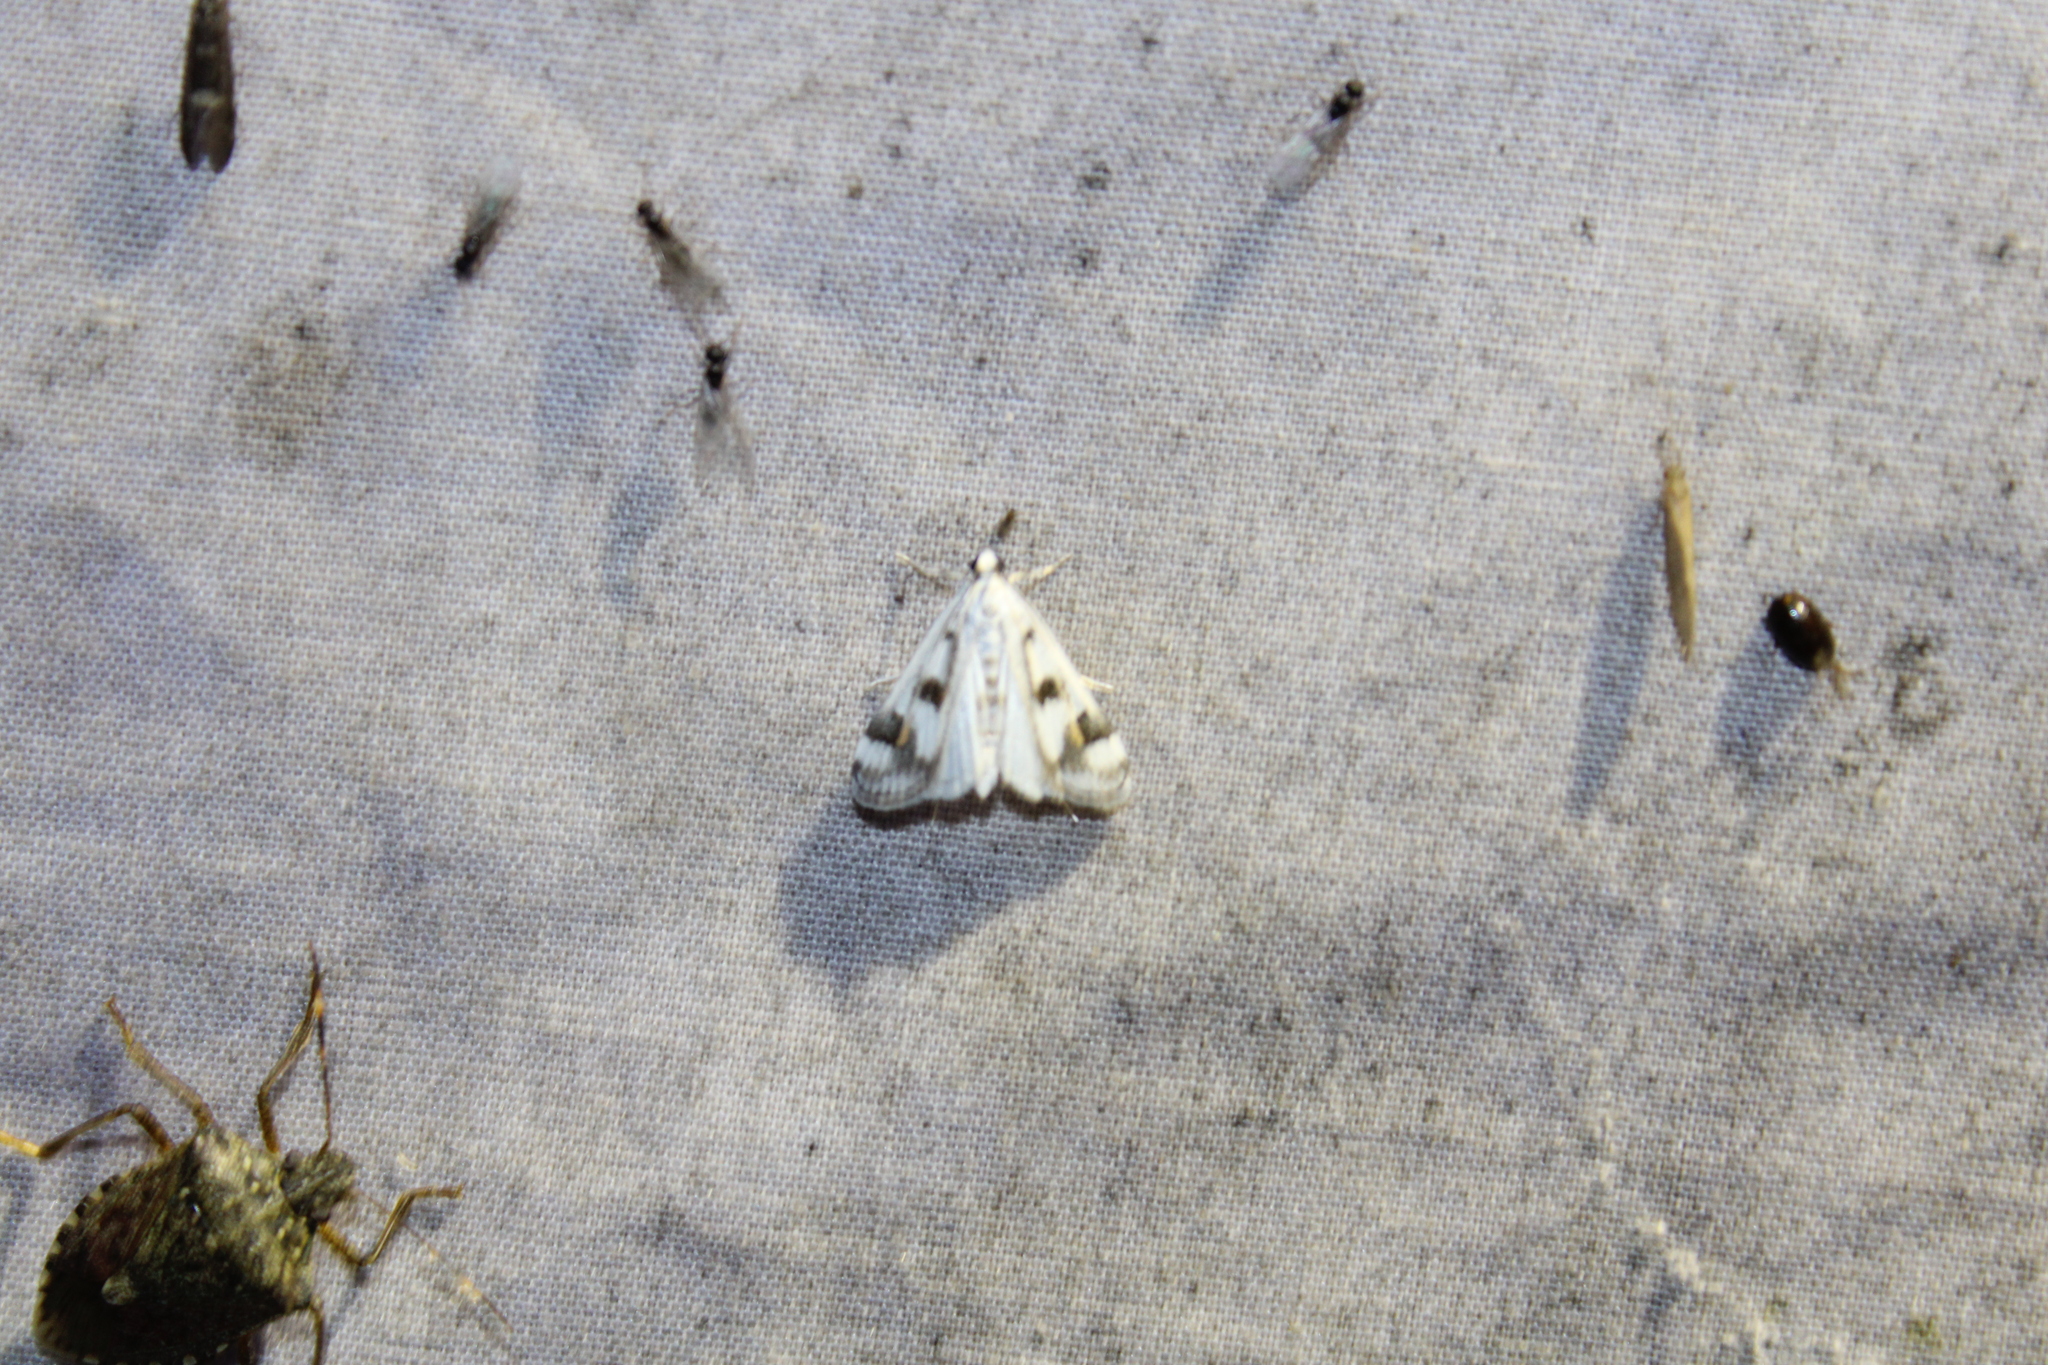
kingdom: Animalia
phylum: Arthropoda
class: Insecta
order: Lepidoptera
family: Crambidae
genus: Parapoynx
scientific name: Parapoynx maculalis
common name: Polymorphic pondweed moth
